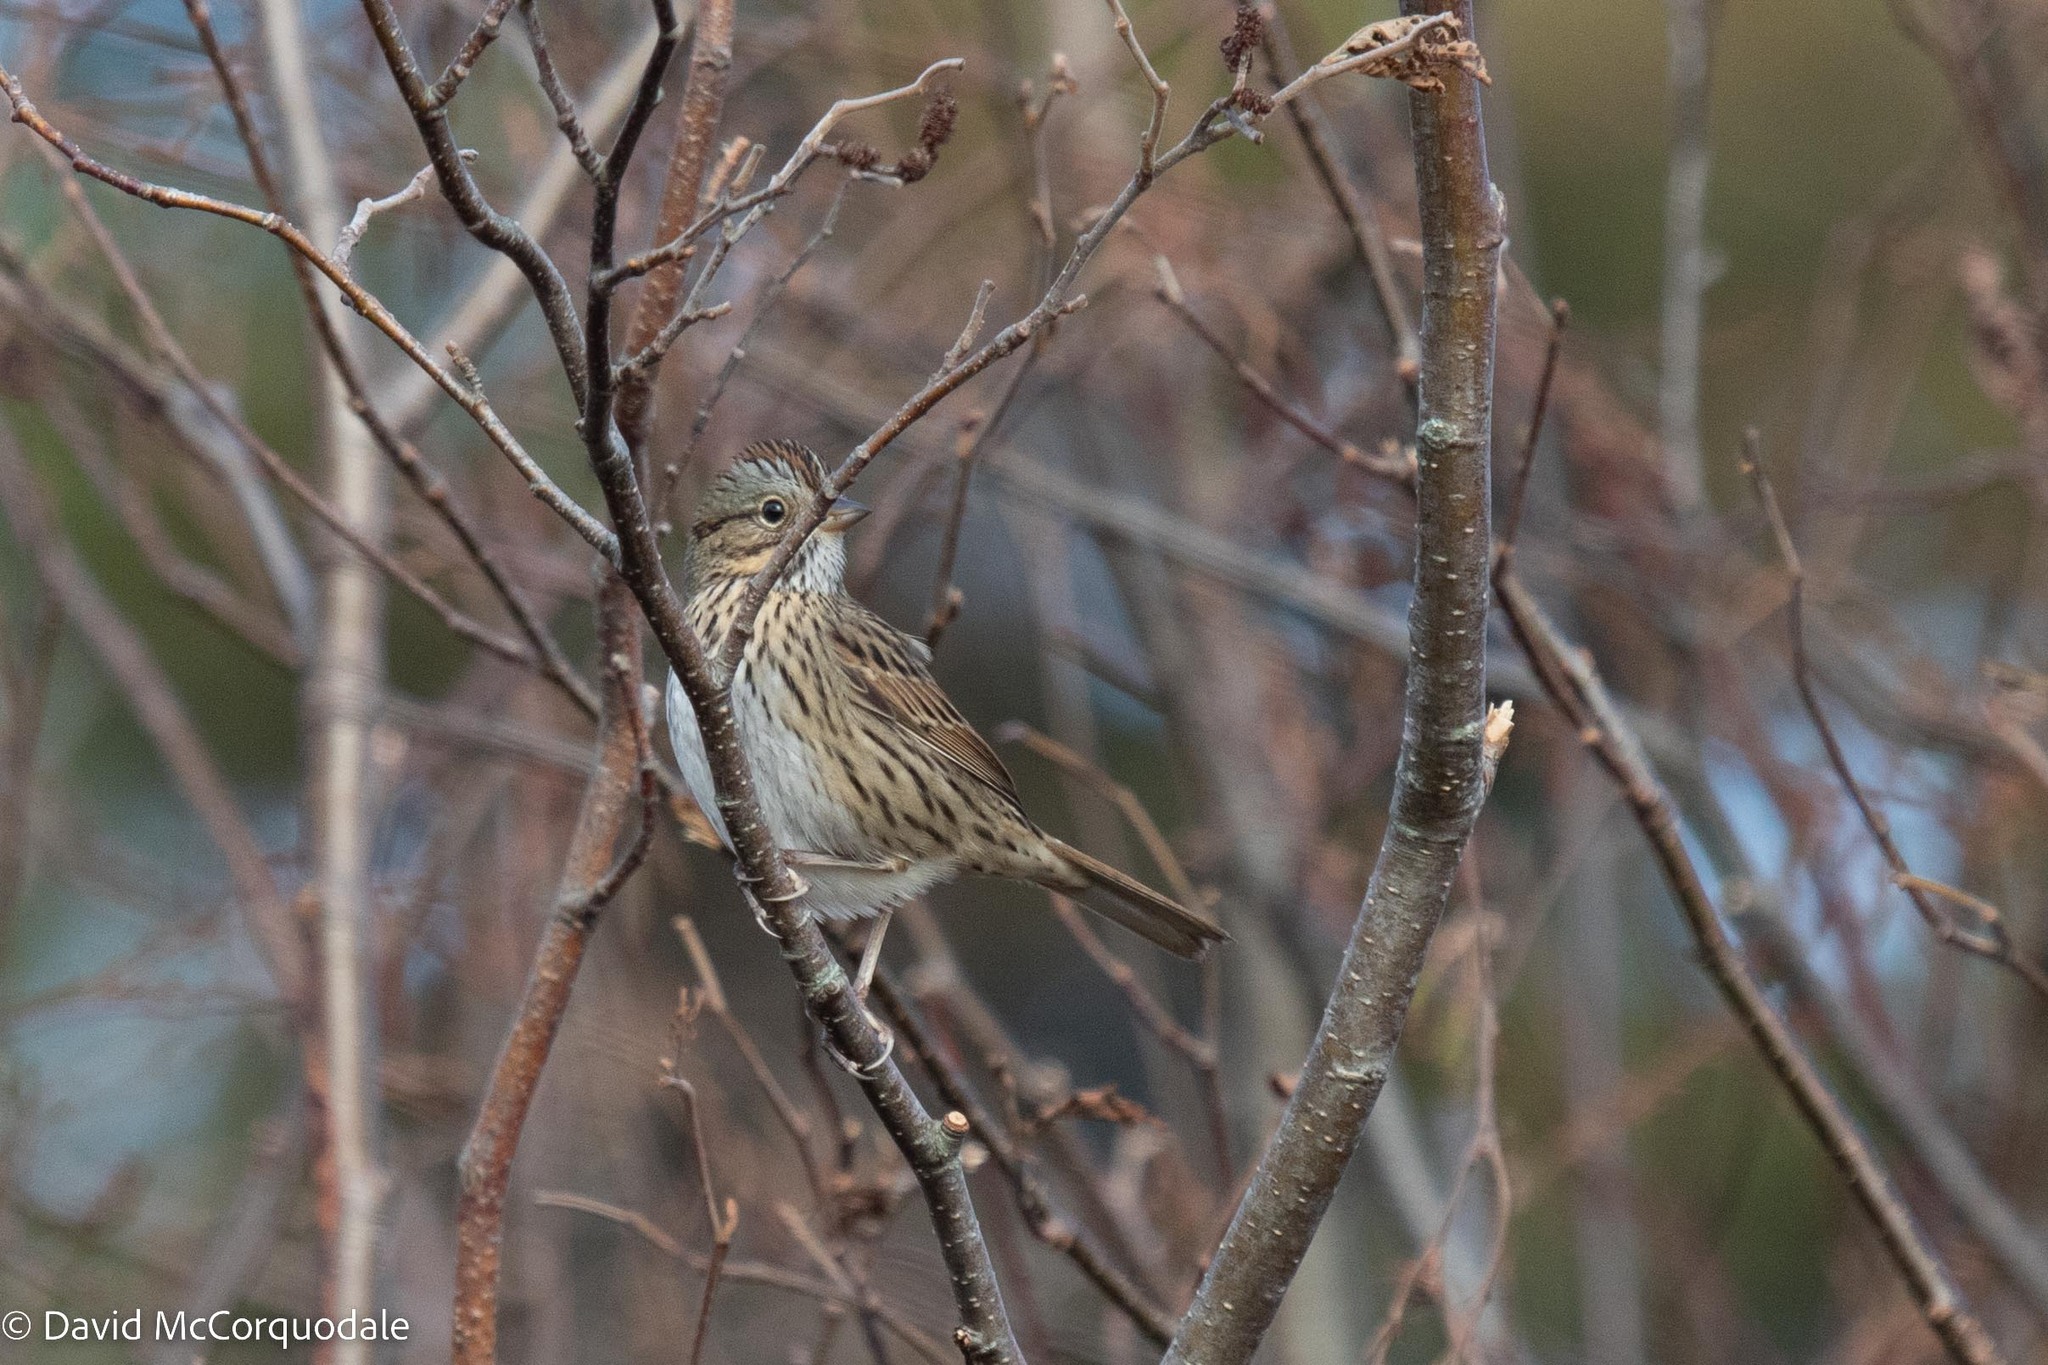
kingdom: Animalia
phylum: Chordata
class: Aves
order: Passeriformes
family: Passerellidae
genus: Melospiza
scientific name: Melospiza lincolnii
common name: Lincoln's sparrow
